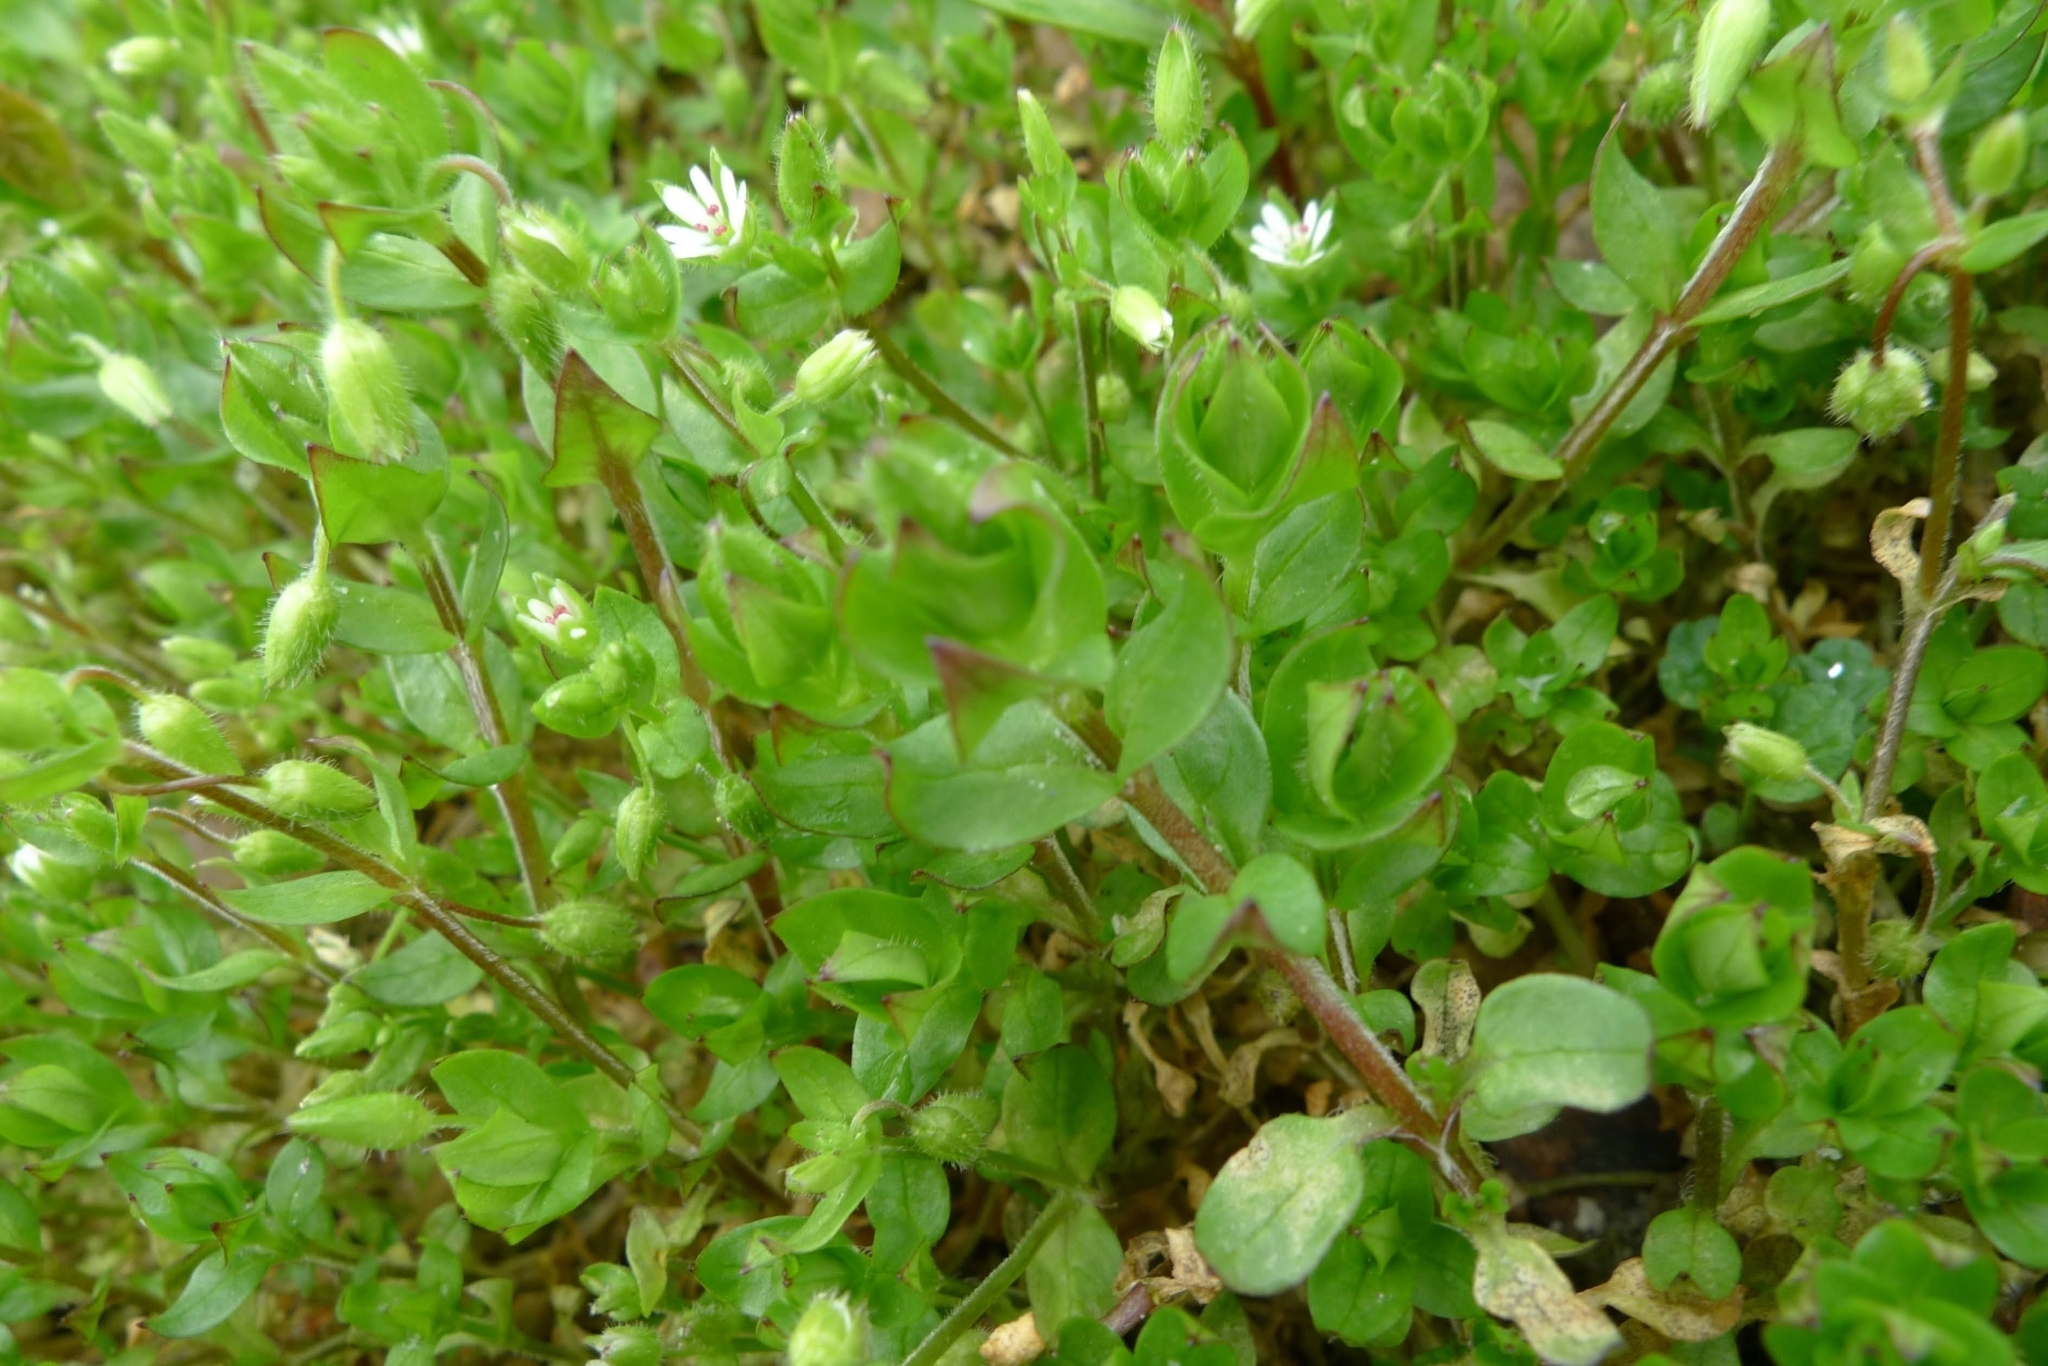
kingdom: Plantae
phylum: Tracheophyta
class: Magnoliopsida
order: Caryophyllales
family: Caryophyllaceae
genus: Stellaria
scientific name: Stellaria media
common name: Common chickweed
